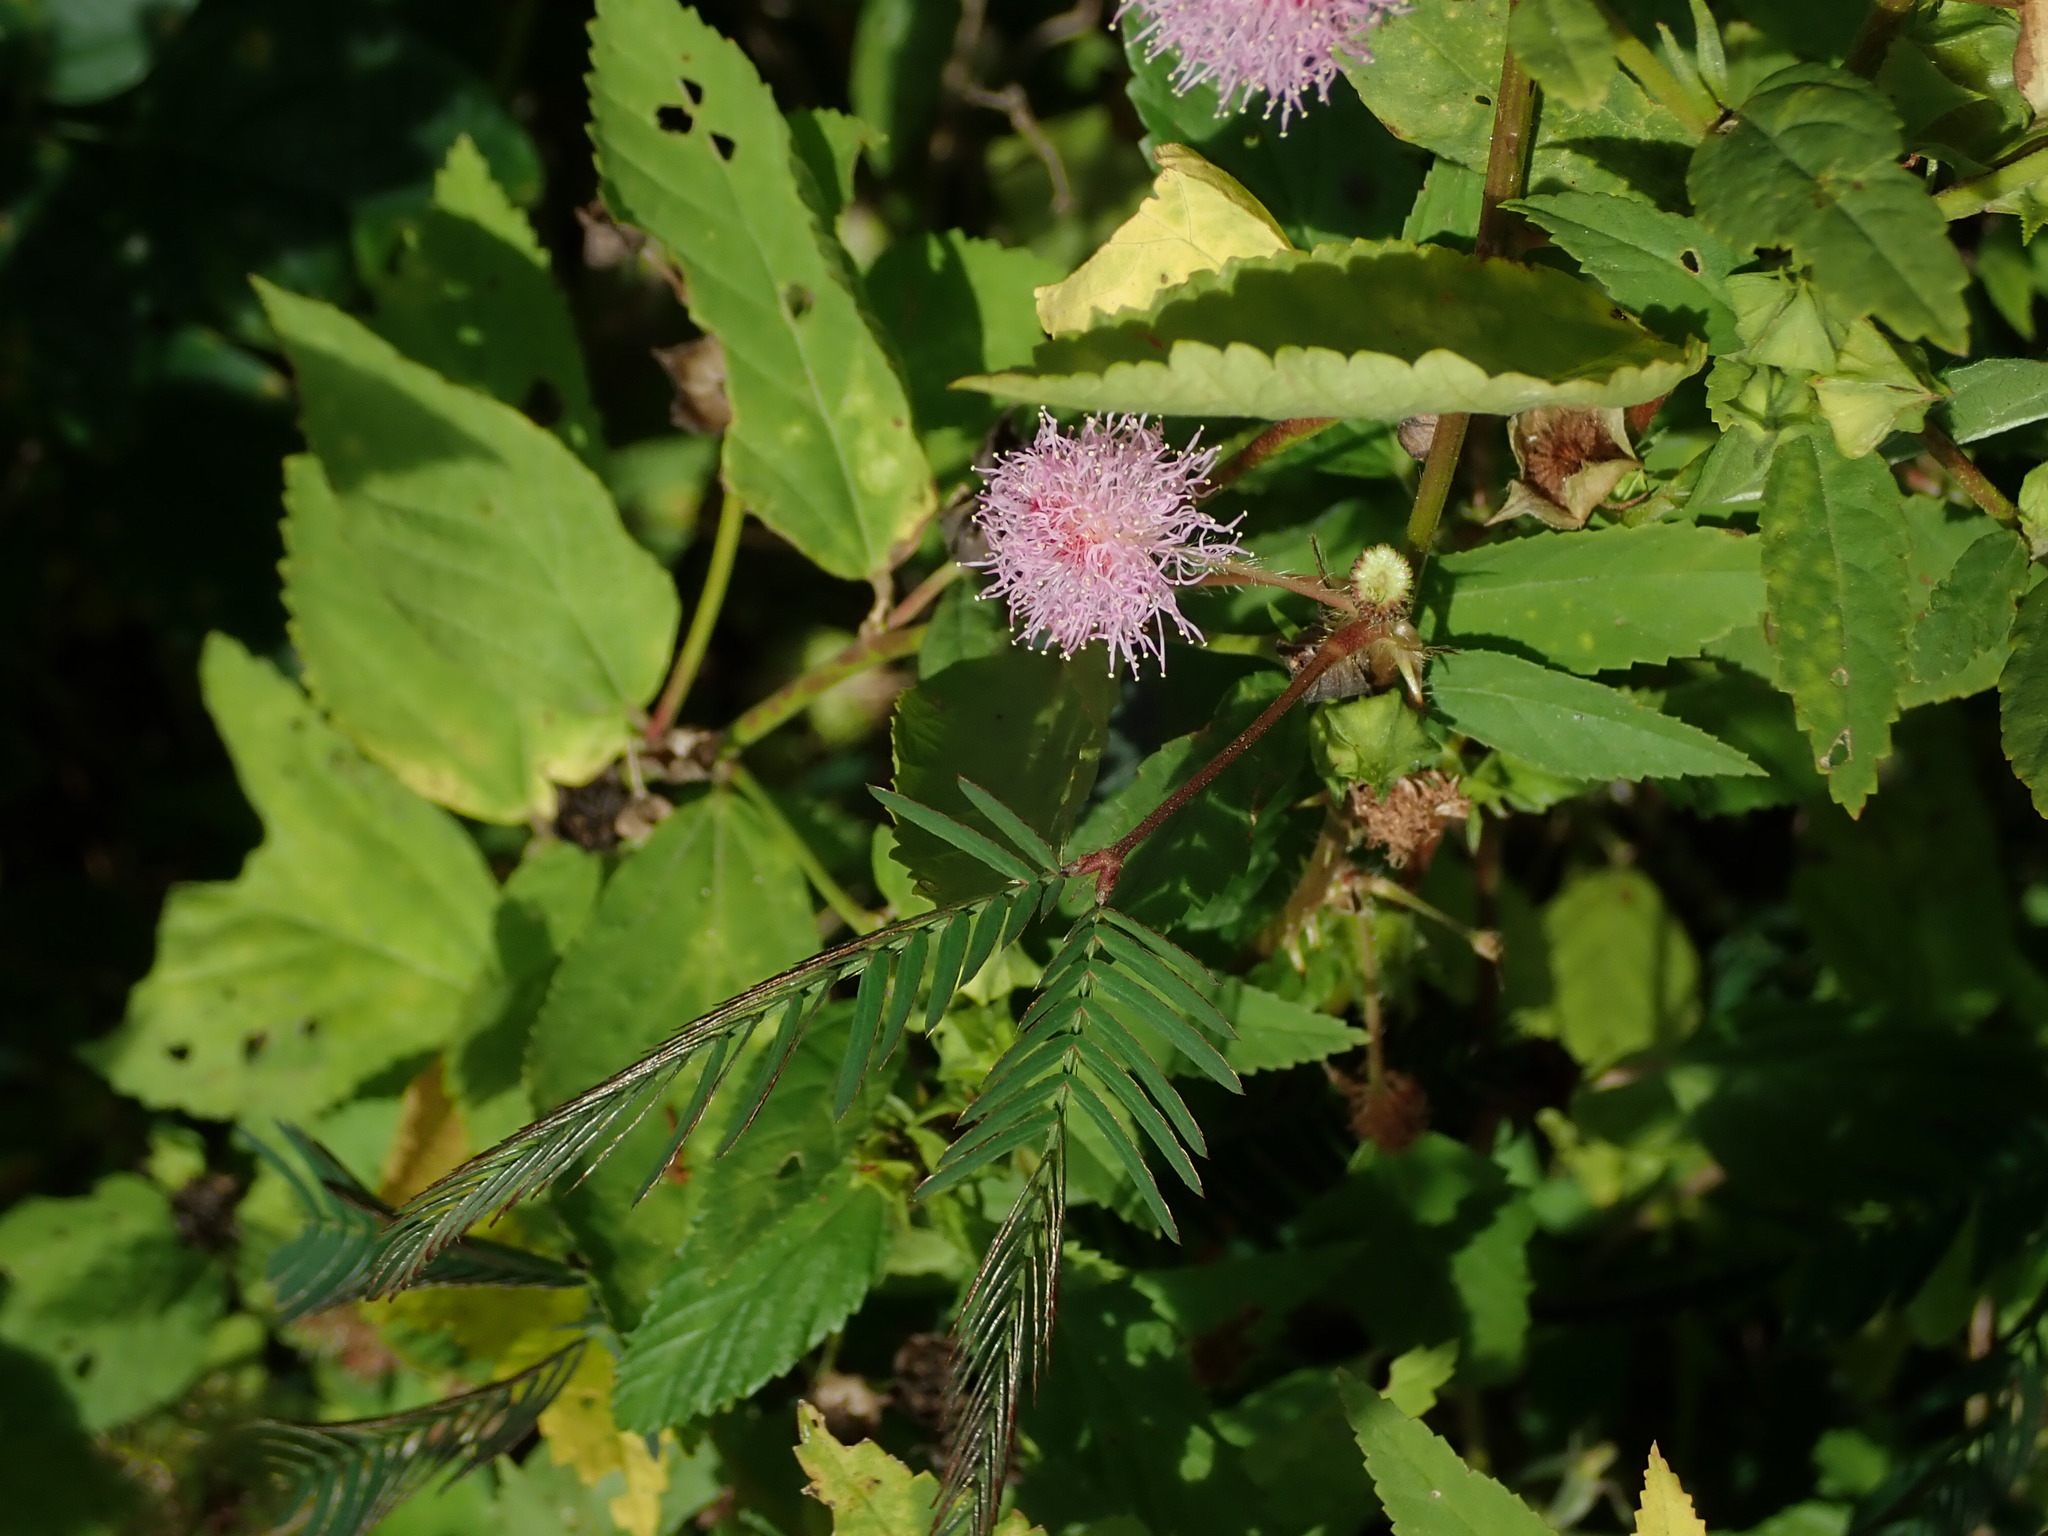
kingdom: Plantae
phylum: Tracheophyta
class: Magnoliopsida
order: Fabales
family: Fabaceae
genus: Mimosa
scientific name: Mimosa pudica
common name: Sensitive plant
